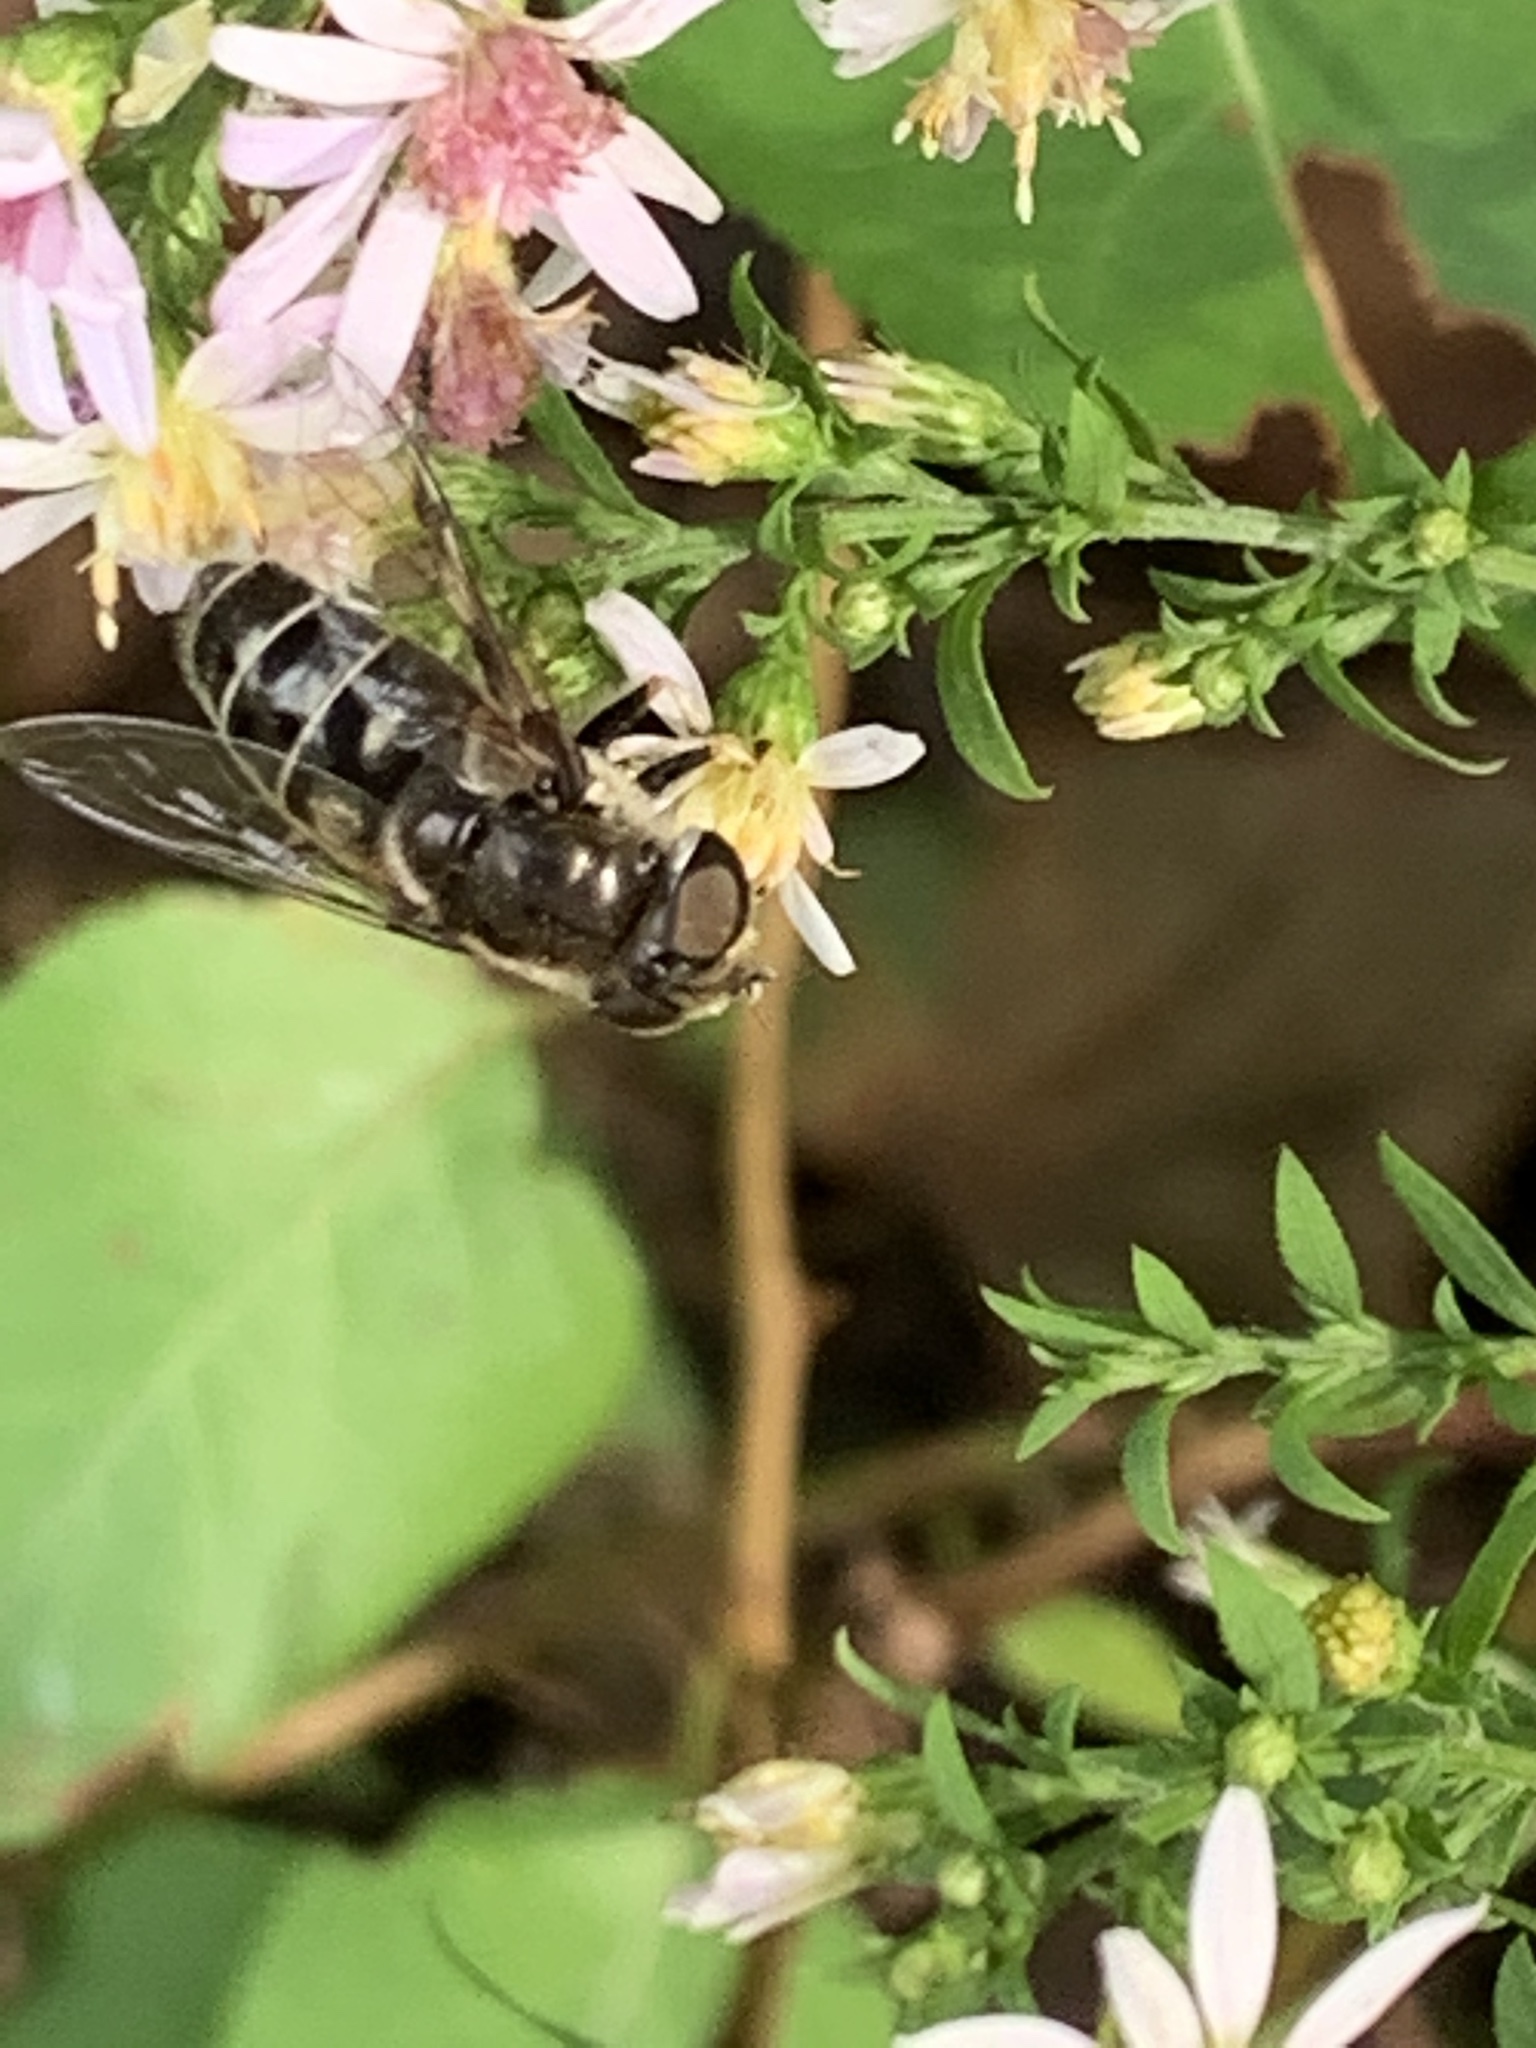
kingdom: Animalia
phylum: Arthropoda
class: Insecta
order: Diptera
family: Syrphidae
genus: Eristalis
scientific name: Eristalis dimidiata
